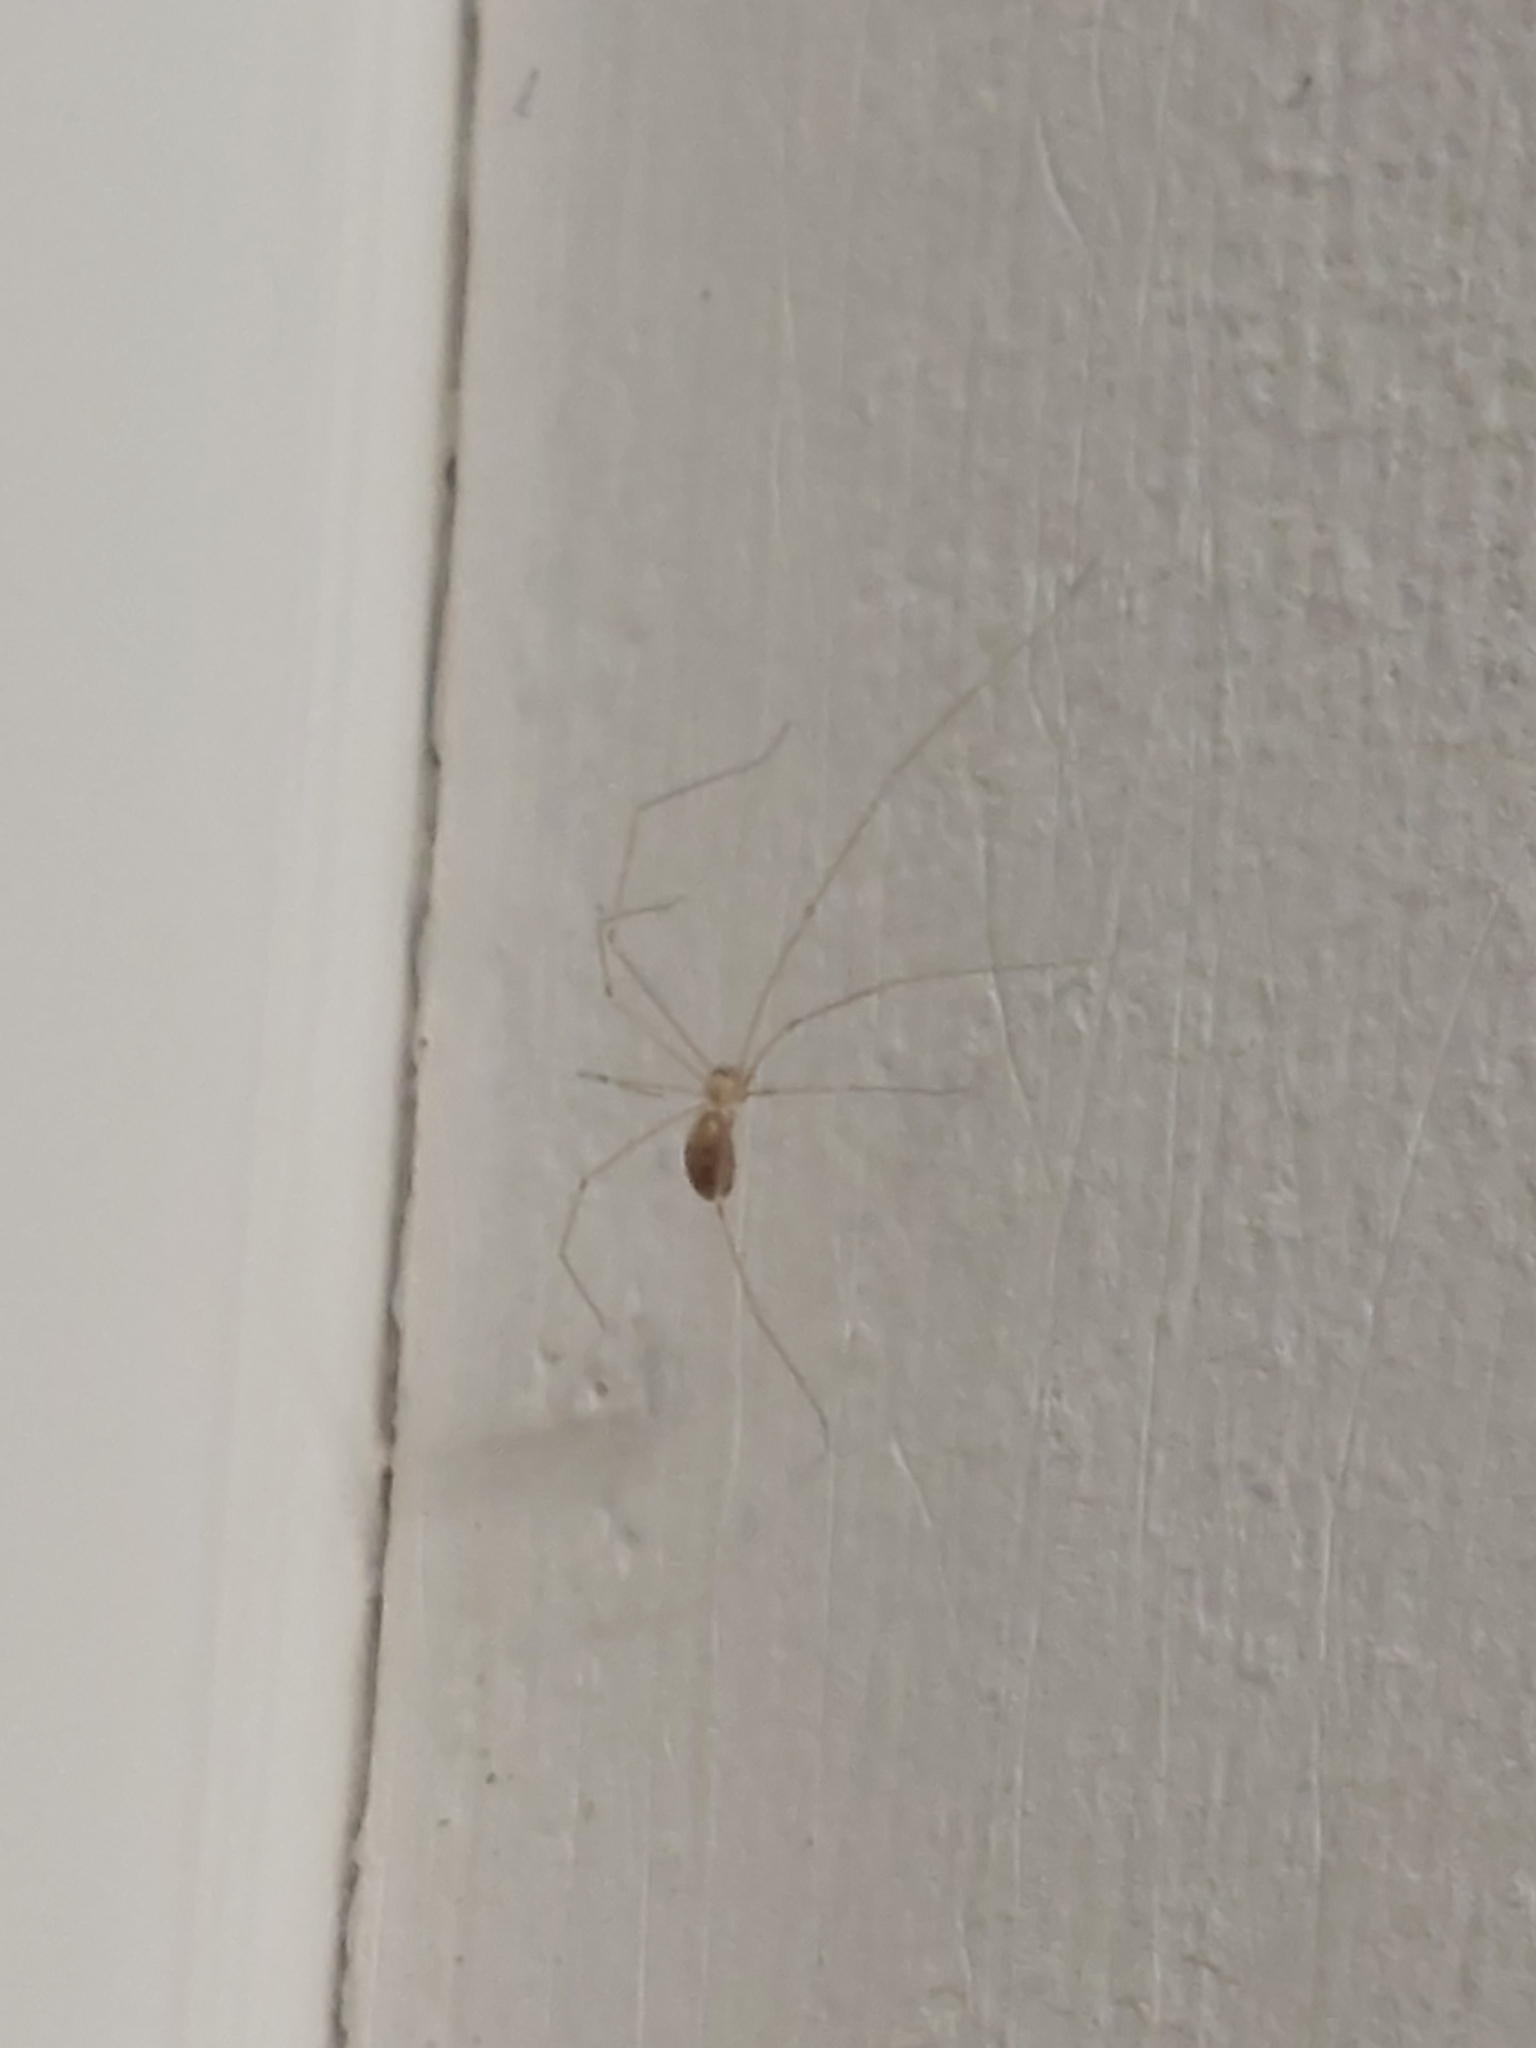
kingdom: Animalia
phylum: Arthropoda
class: Arachnida
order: Araneae
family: Pholcidae
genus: Pholcus
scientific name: Pholcus phalangioides
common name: Longbodied cellar spider
